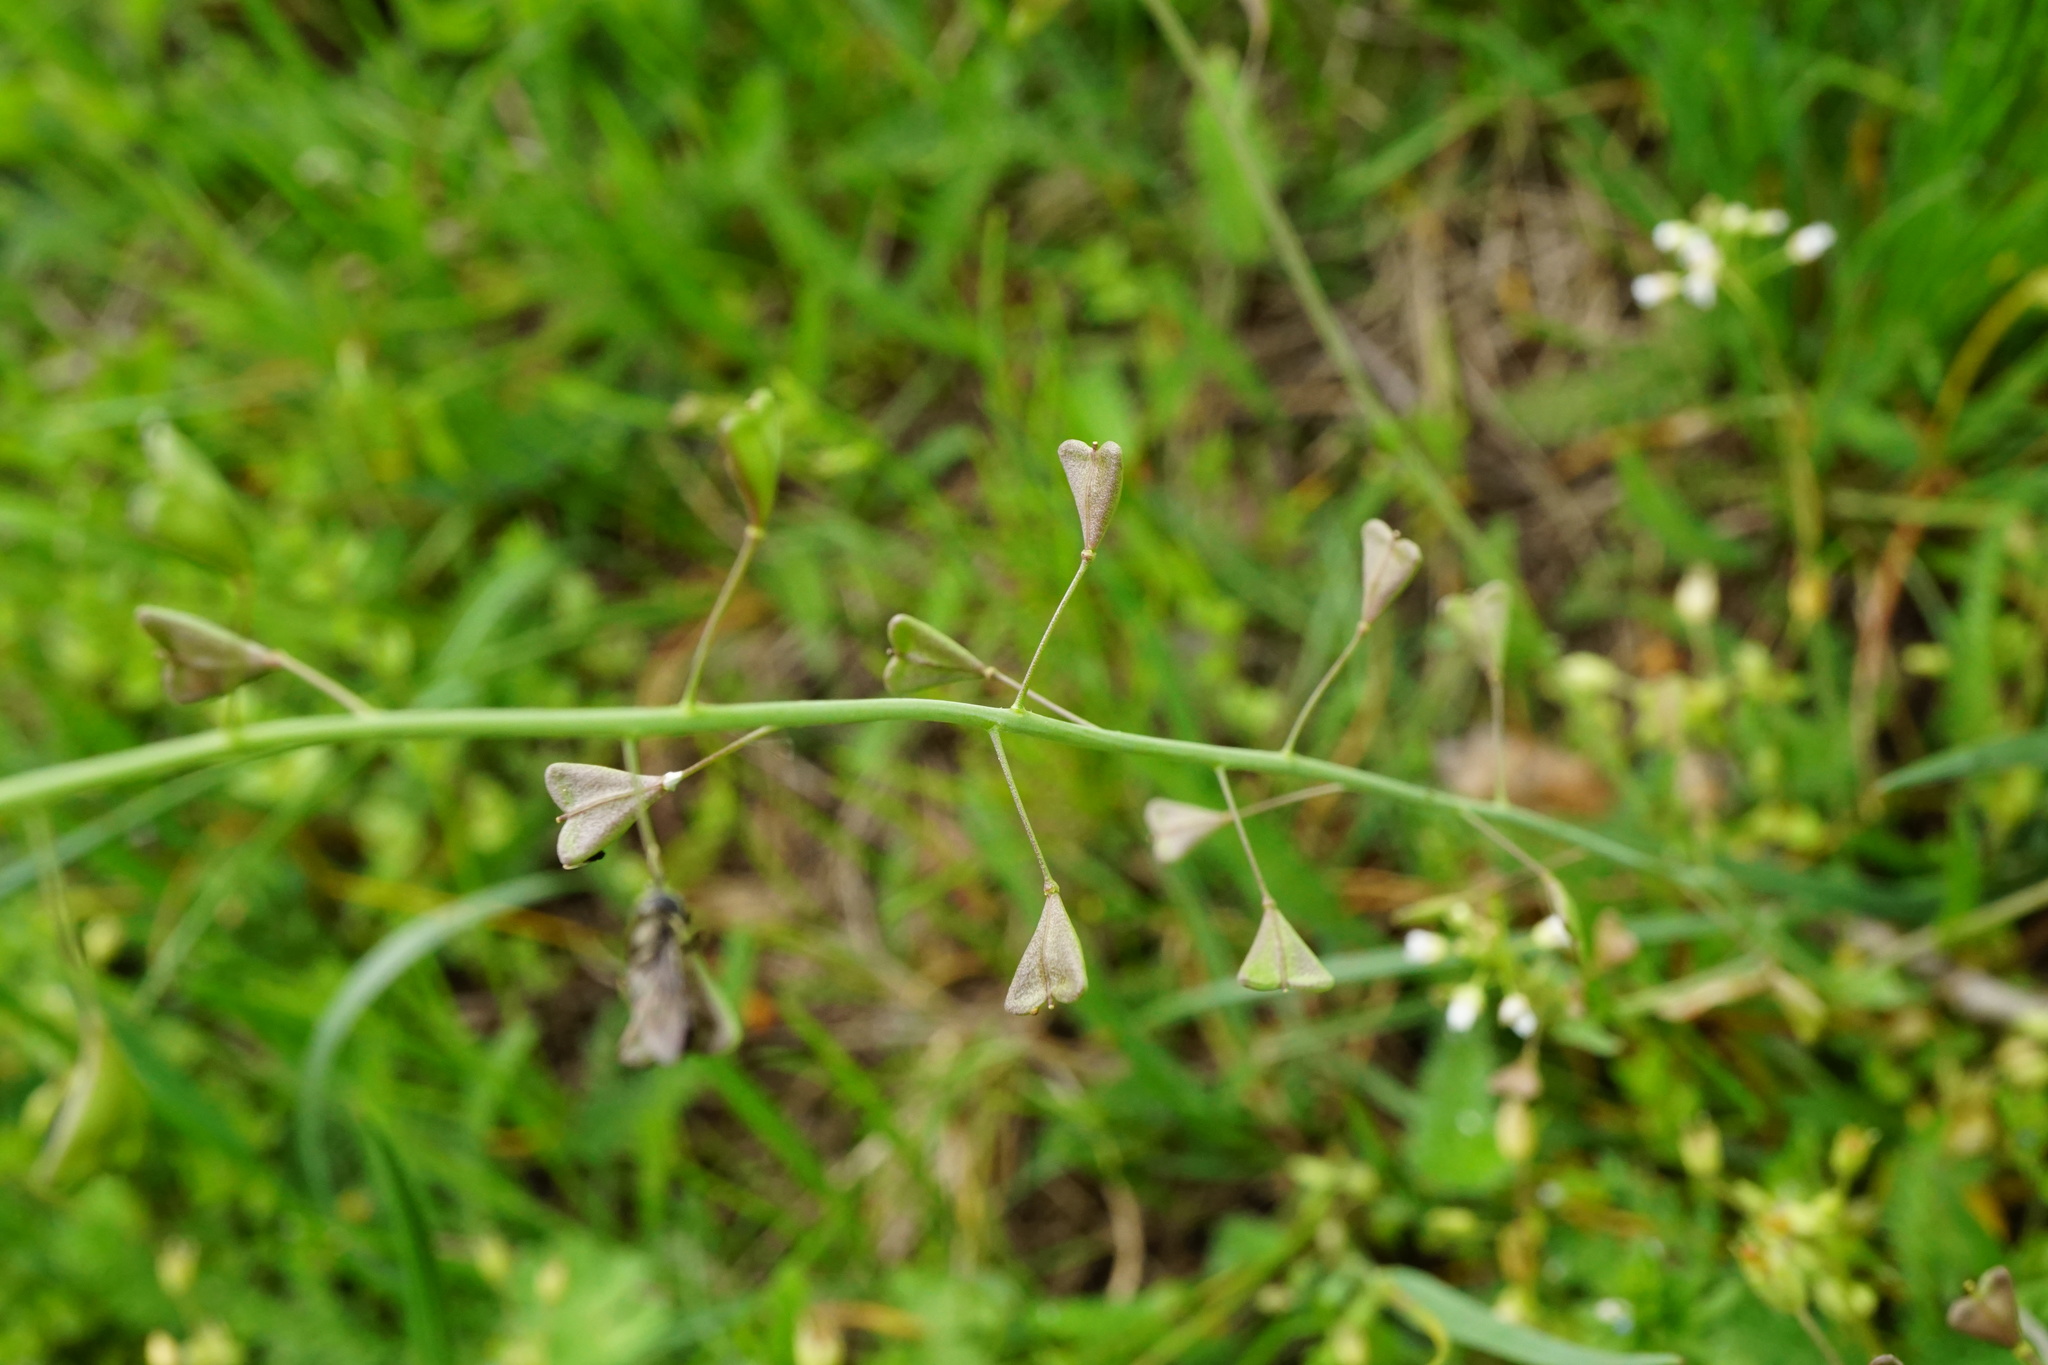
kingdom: Plantae
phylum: Tracheophyta
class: Magnoliopsida
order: Brassicales
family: Brassicaceae
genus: Capsella
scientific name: Capsella bursa-pastoris
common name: Shepherd's purse
